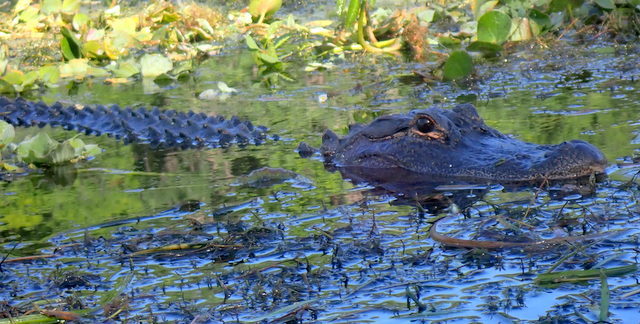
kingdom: Animalia
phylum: Chordata
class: Crocodylia
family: Alligatoridae
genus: Alligator
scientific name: Alligator mississippiensis
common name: American alligator
